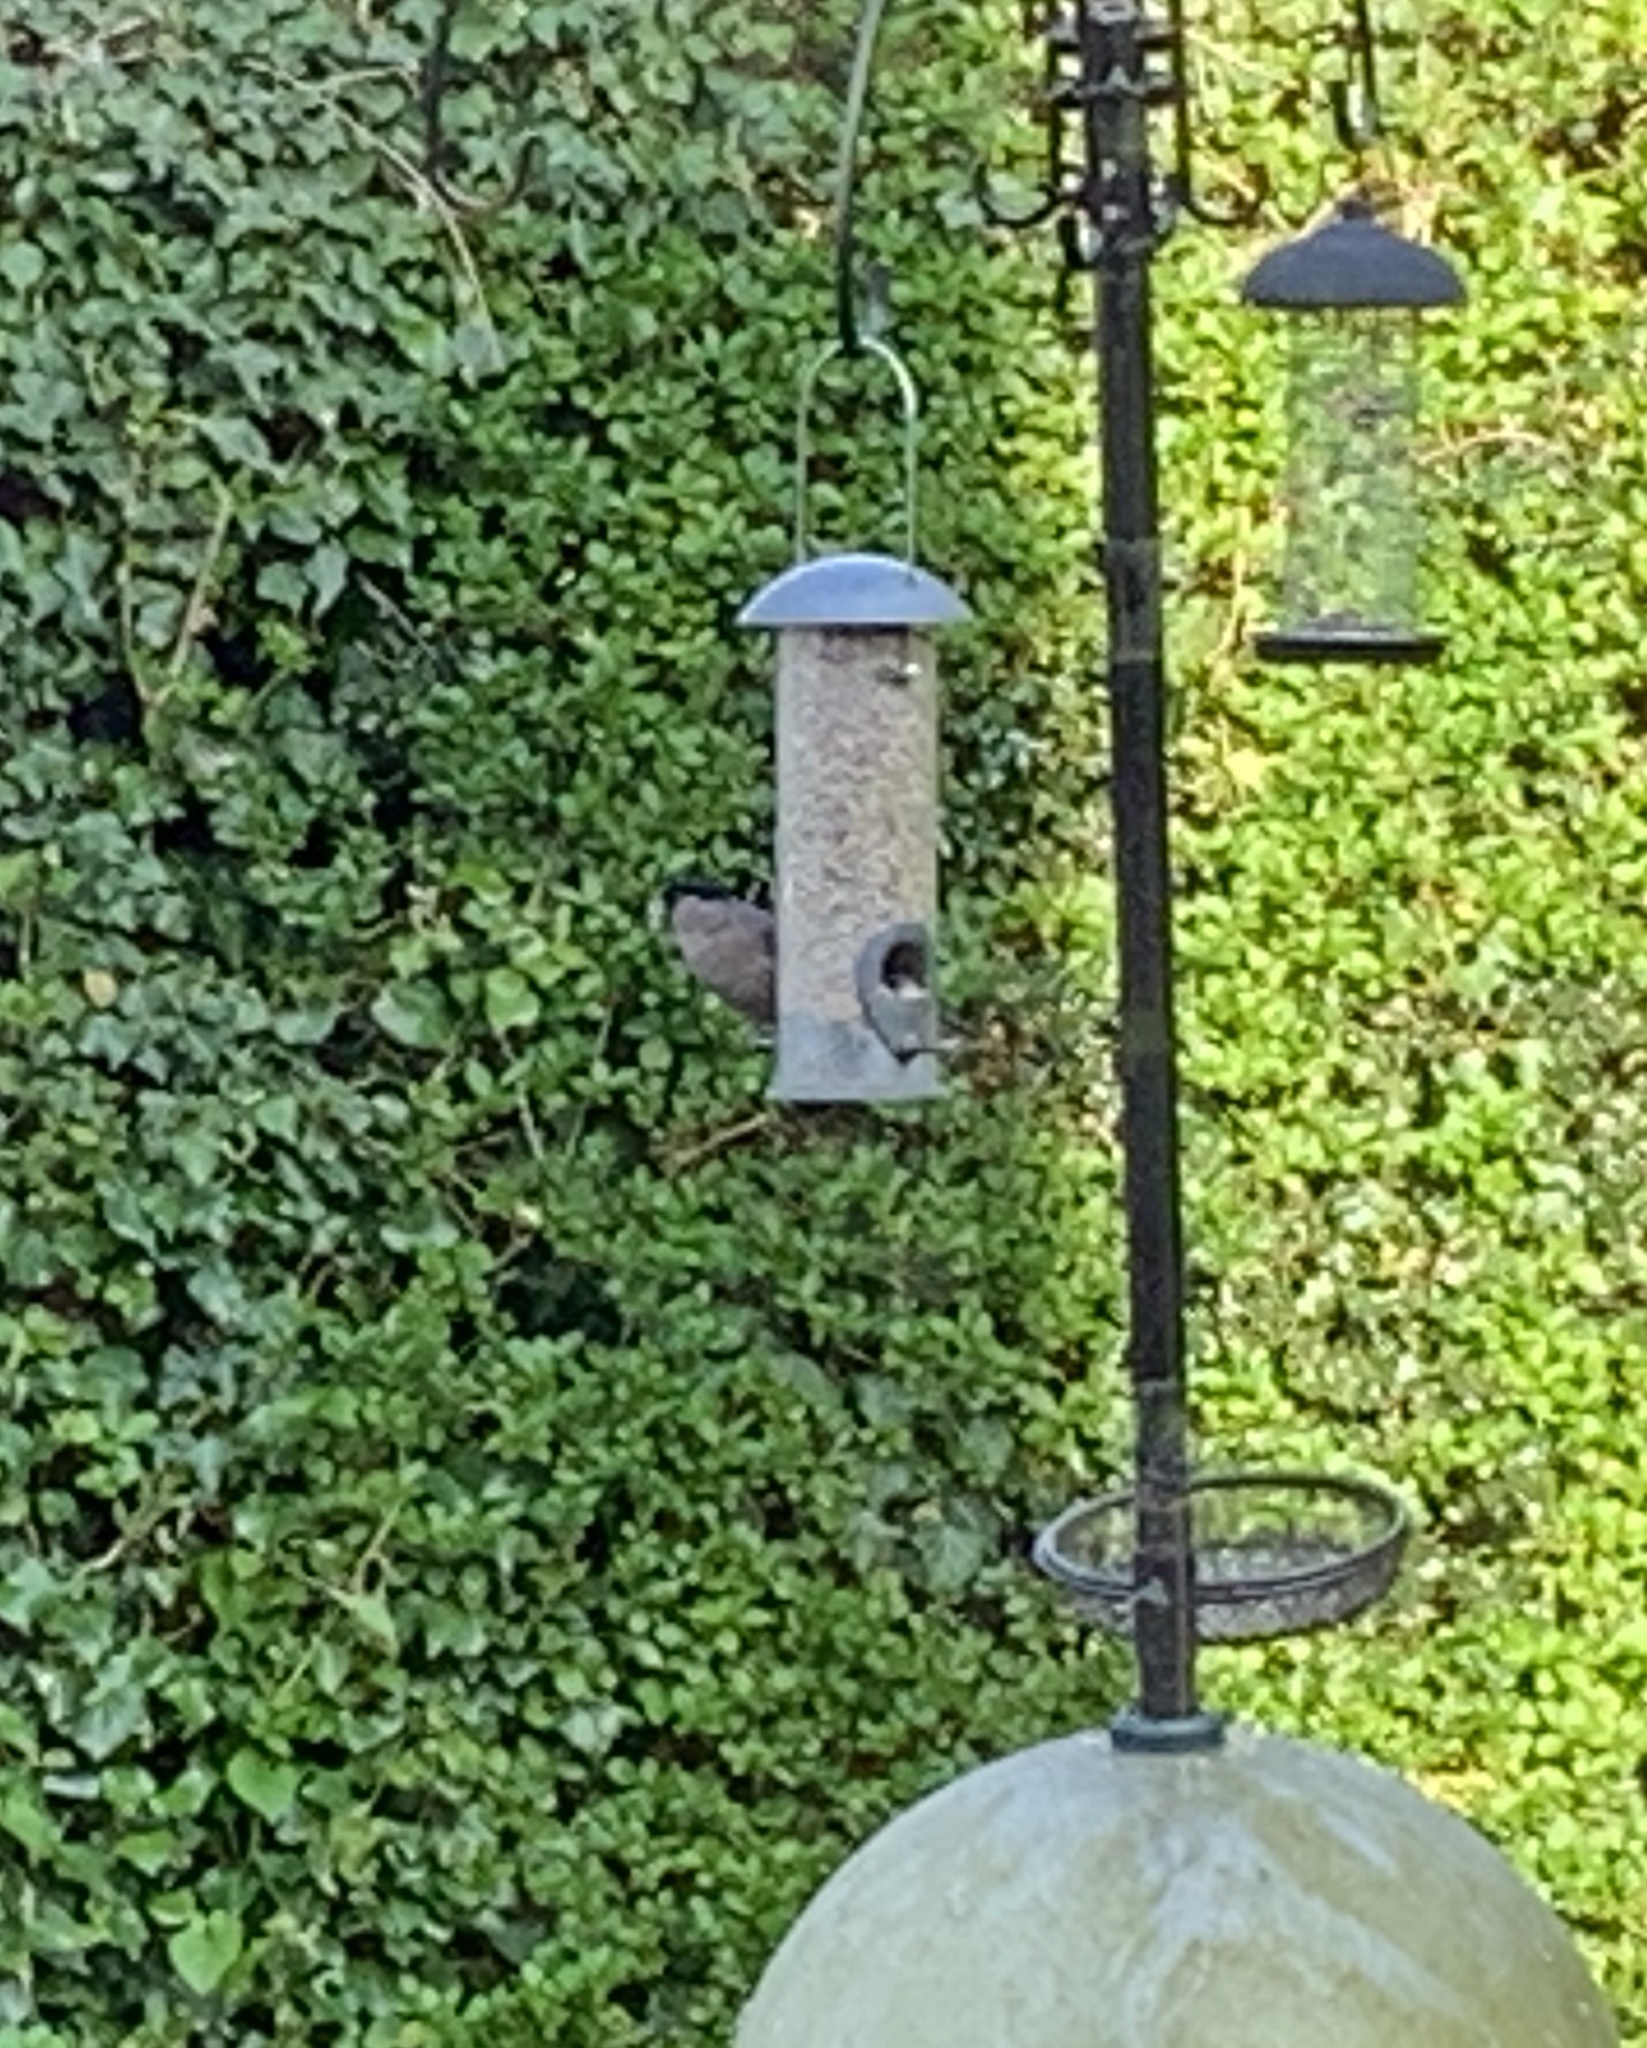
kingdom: Animalia
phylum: Chordata
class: Aves
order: Passeriformes
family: Fringillidae
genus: Pyrrhula
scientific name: Pyrrhula pyrrhula
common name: Eurasian bullfinch
